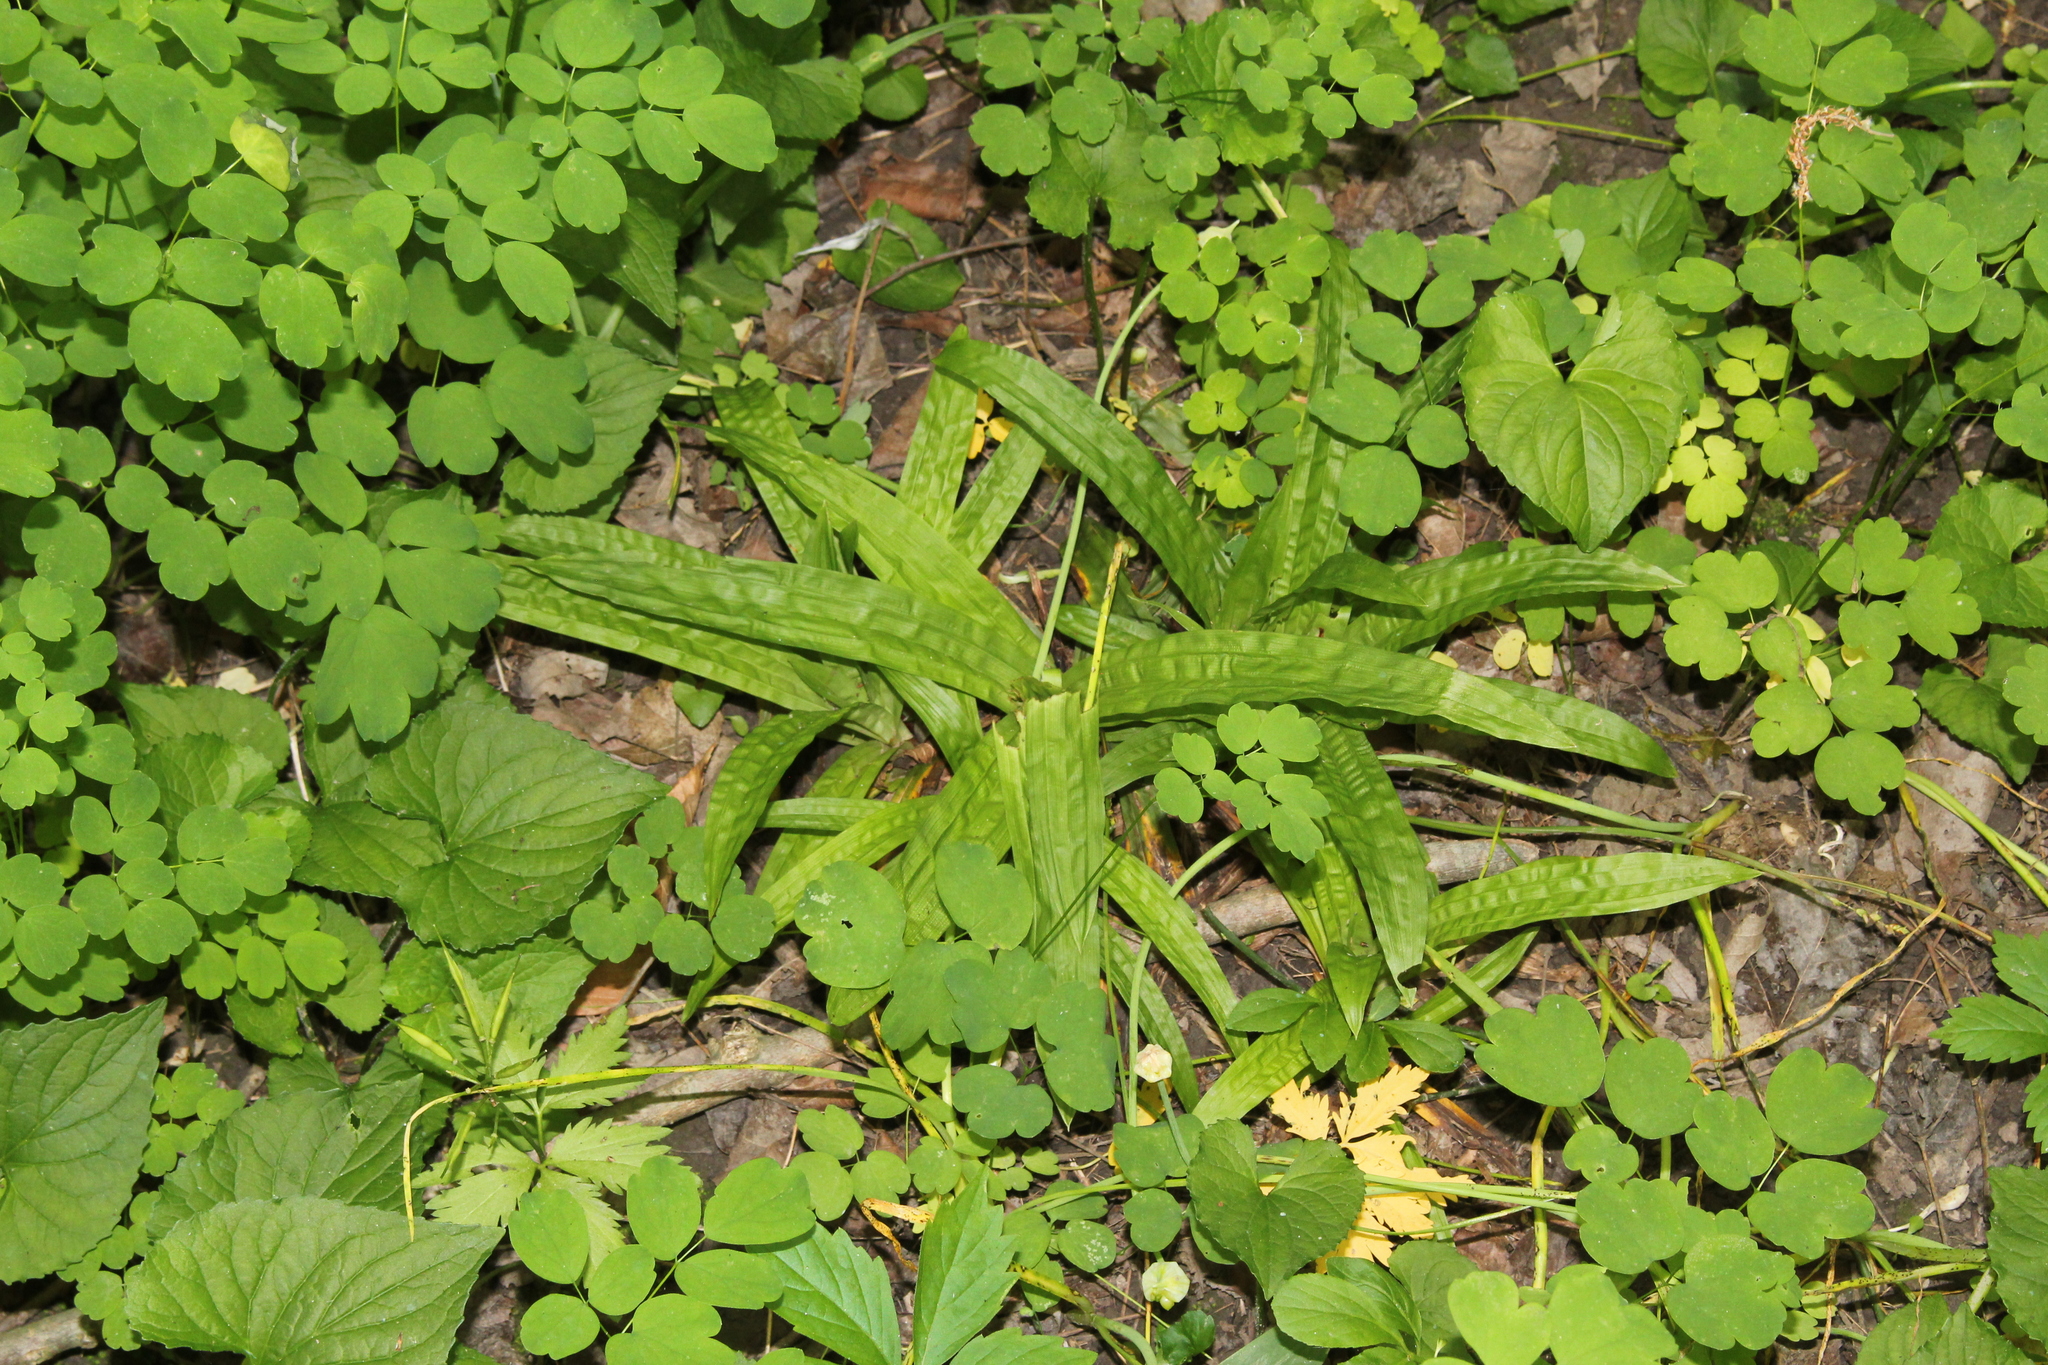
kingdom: Plantae
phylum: Tracheophyta
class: Liliopsida
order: Poales
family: Cyperaceae
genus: Carex
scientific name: Carex plantaginea
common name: Plantain-leaved sedge
